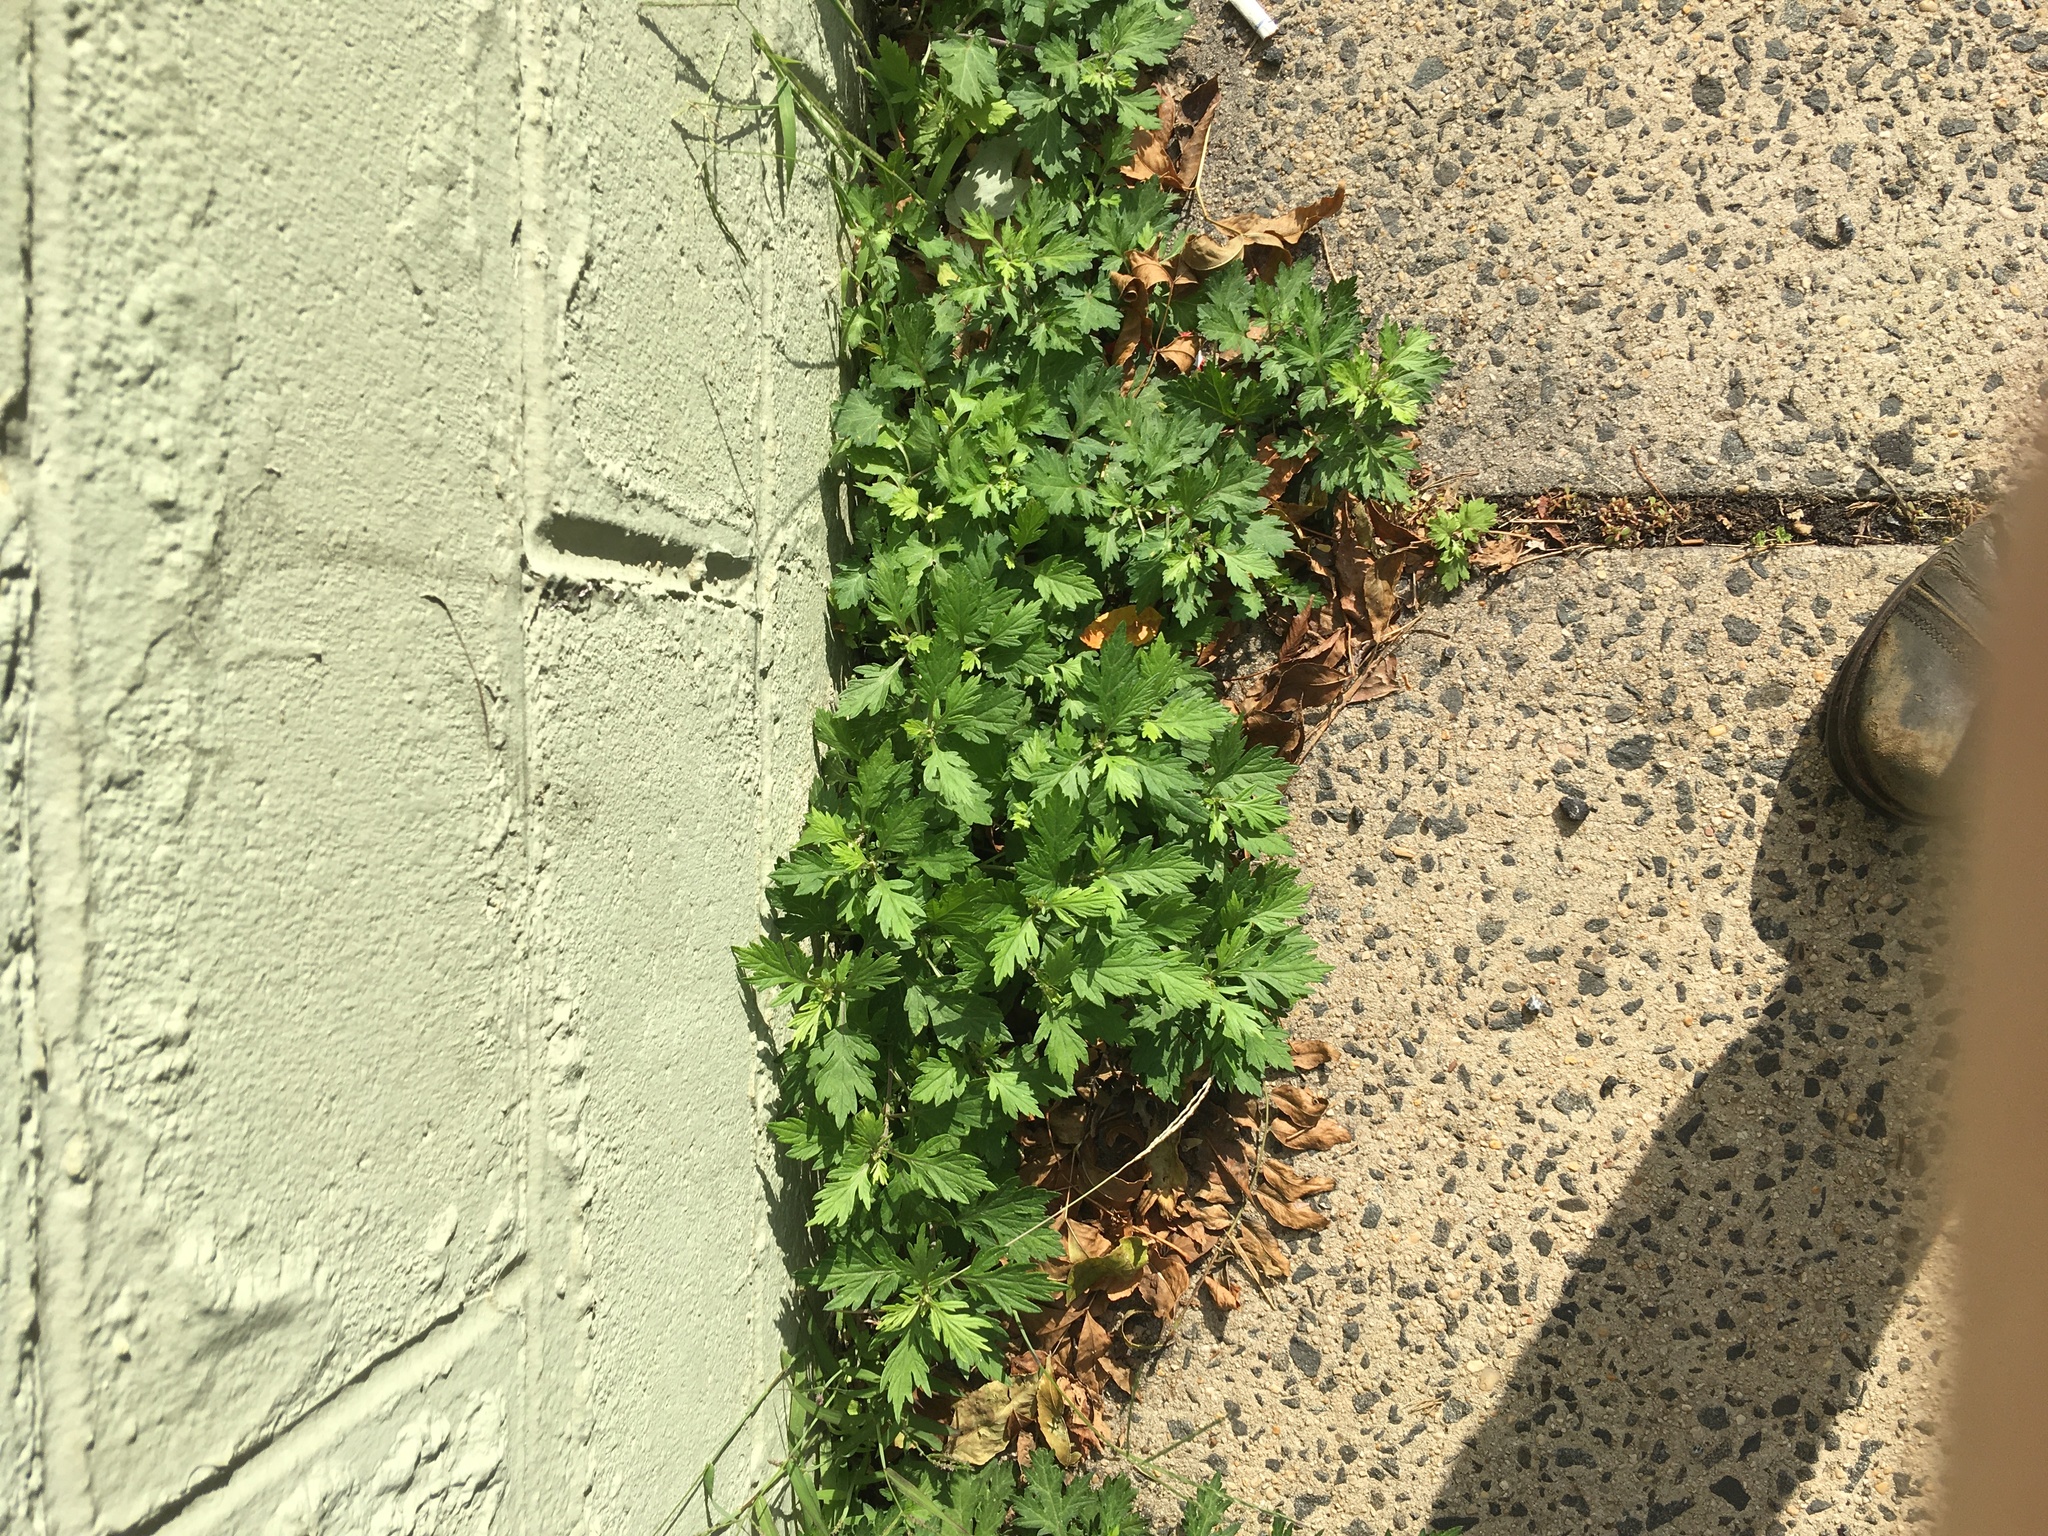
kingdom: Plantae
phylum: Tracheophyta
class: Magnoliopsida
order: Asterales
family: Asteraceae
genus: Artemisia
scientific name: Artemisia vulgaris
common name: Mugwort
